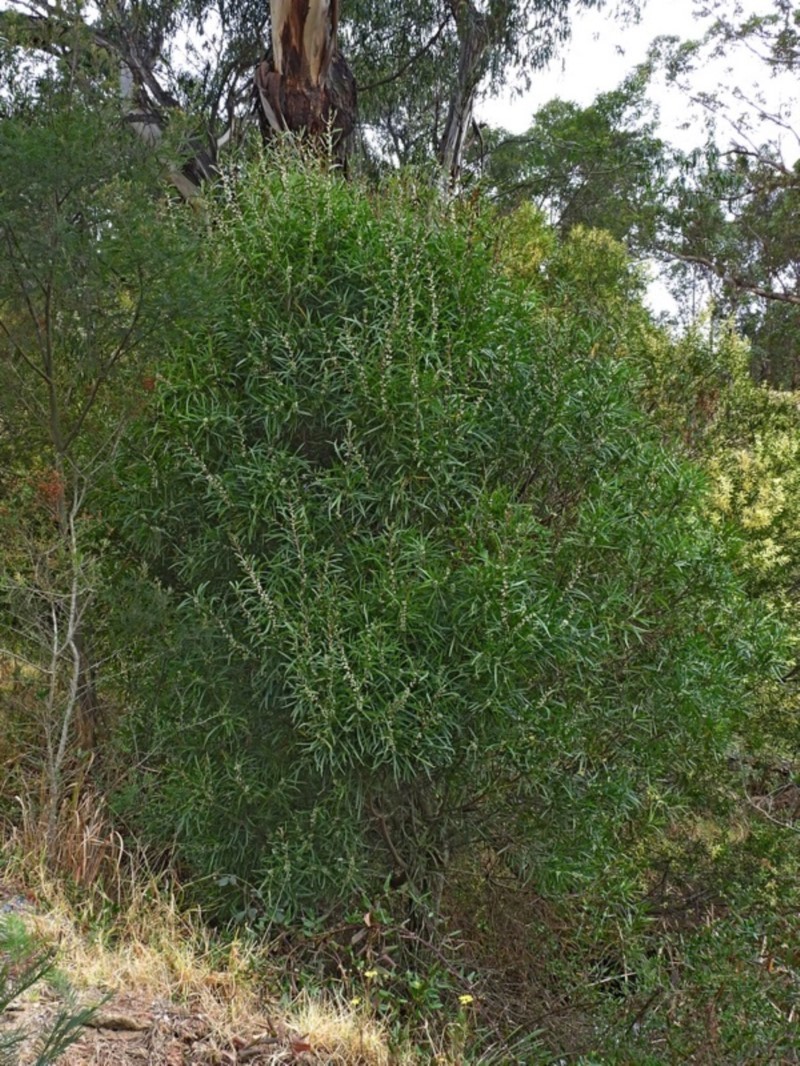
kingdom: Plantae
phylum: Tracheophyta
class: Magnoliopsida
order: Proteales
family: Proteaceae
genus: Hakea
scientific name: Hakea eriantha
